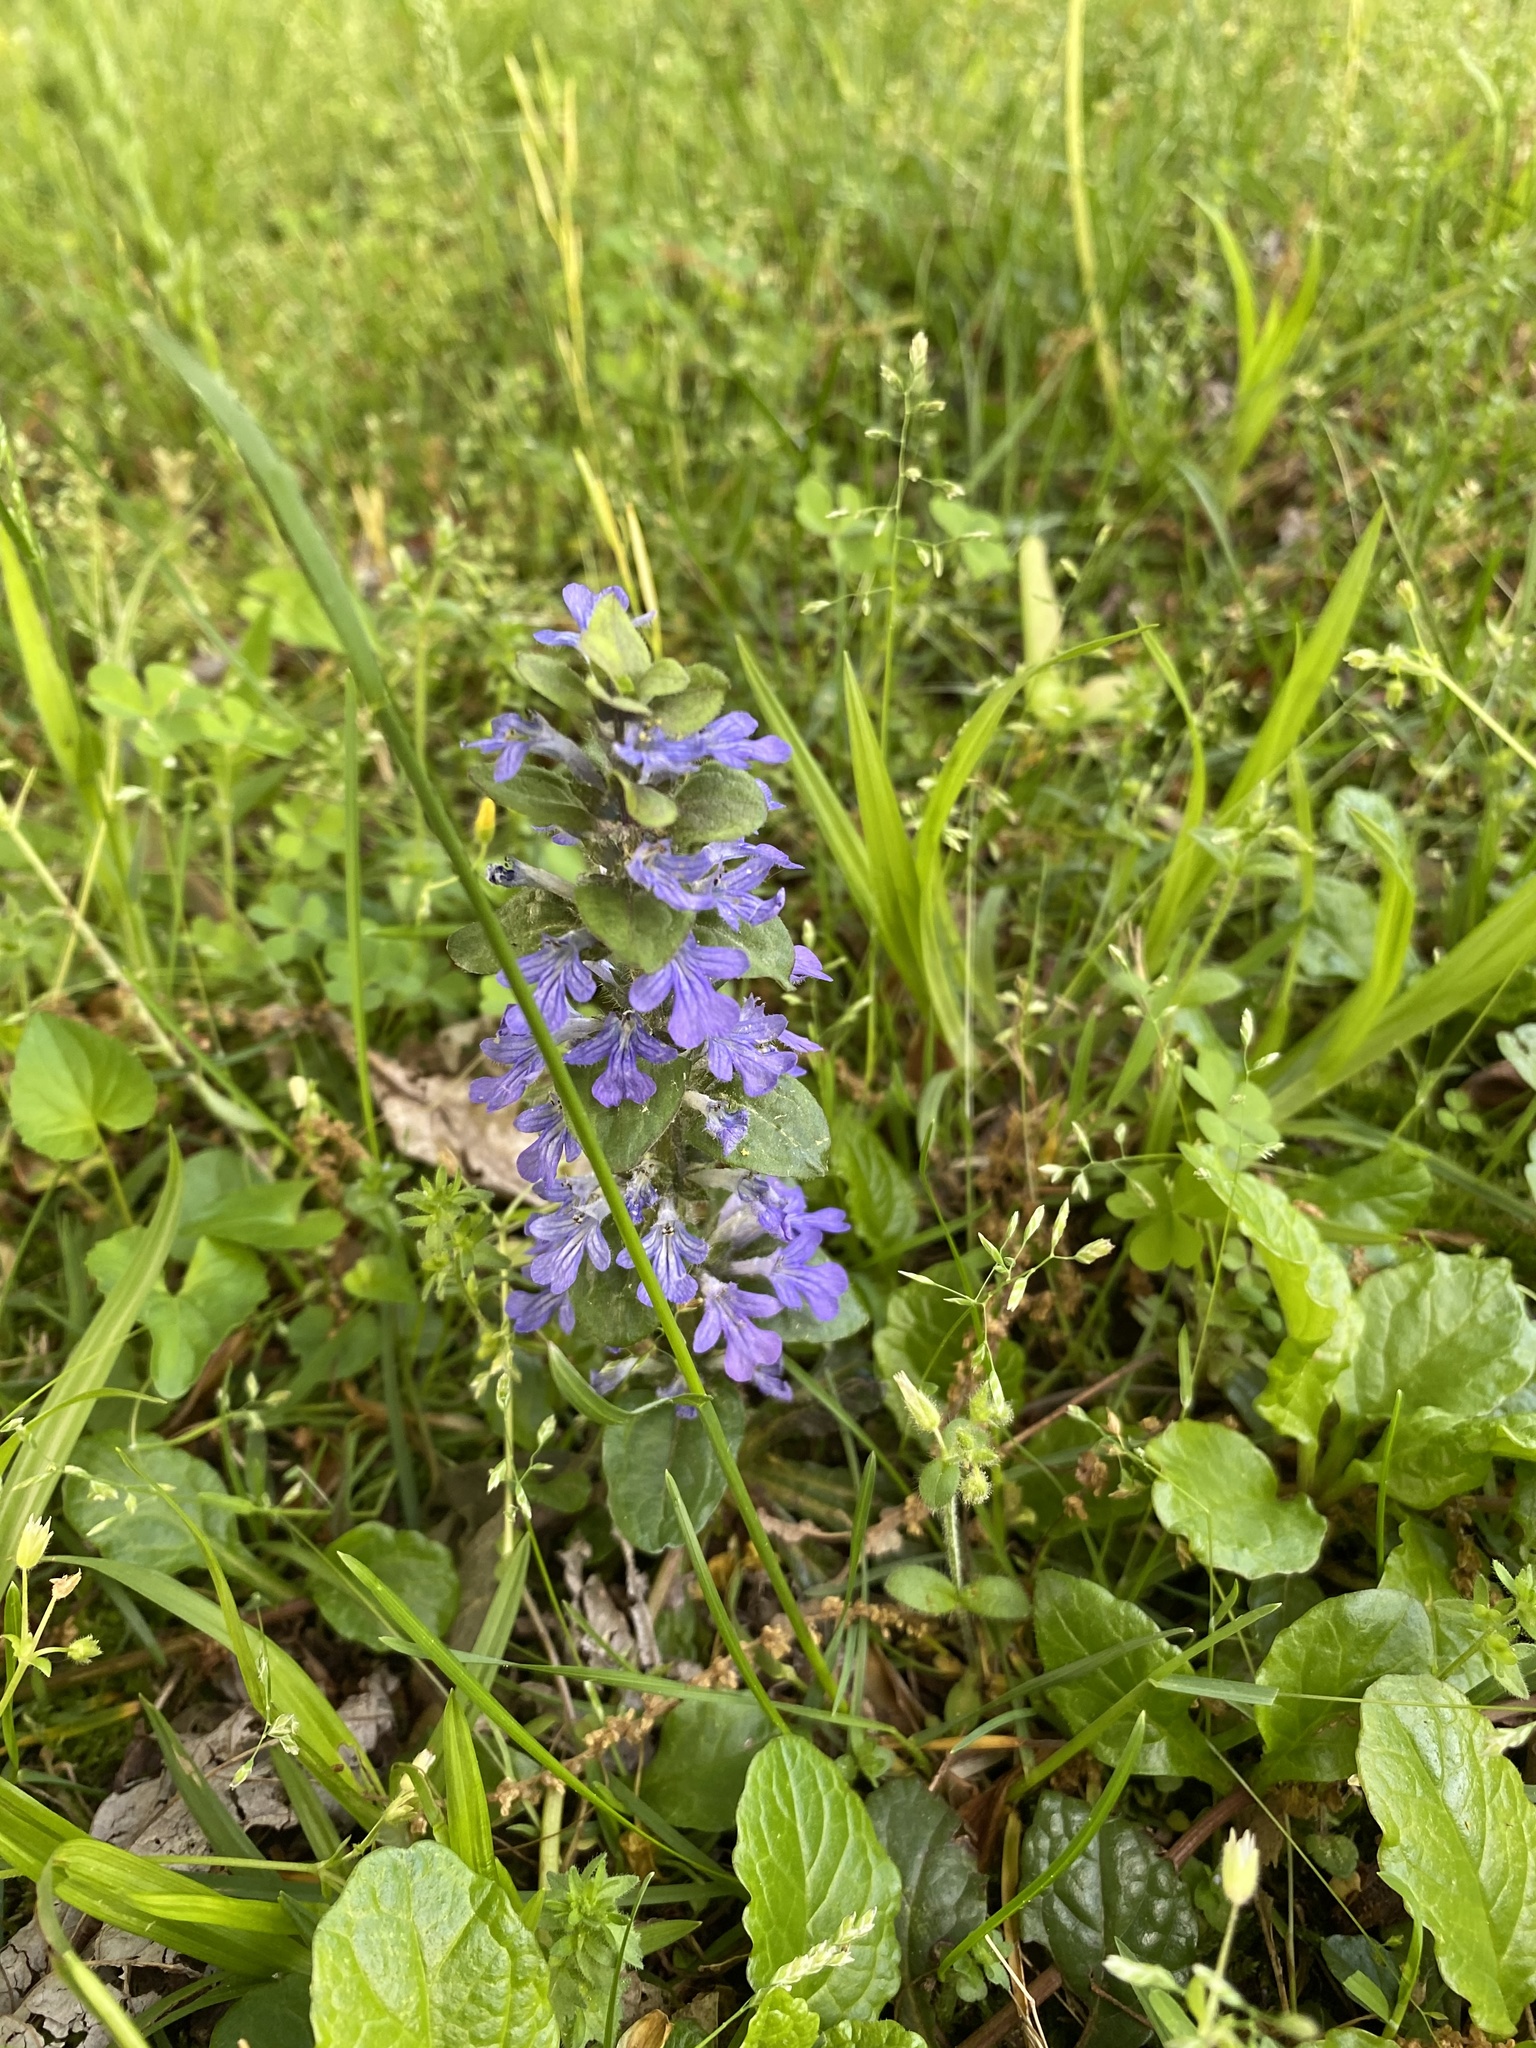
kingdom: Plantae
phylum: Tracheophyta
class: Magnoliopsida
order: Lamiales
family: Lamiaceae
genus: Ajuga
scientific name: Ajuga reptans
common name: Bugle
